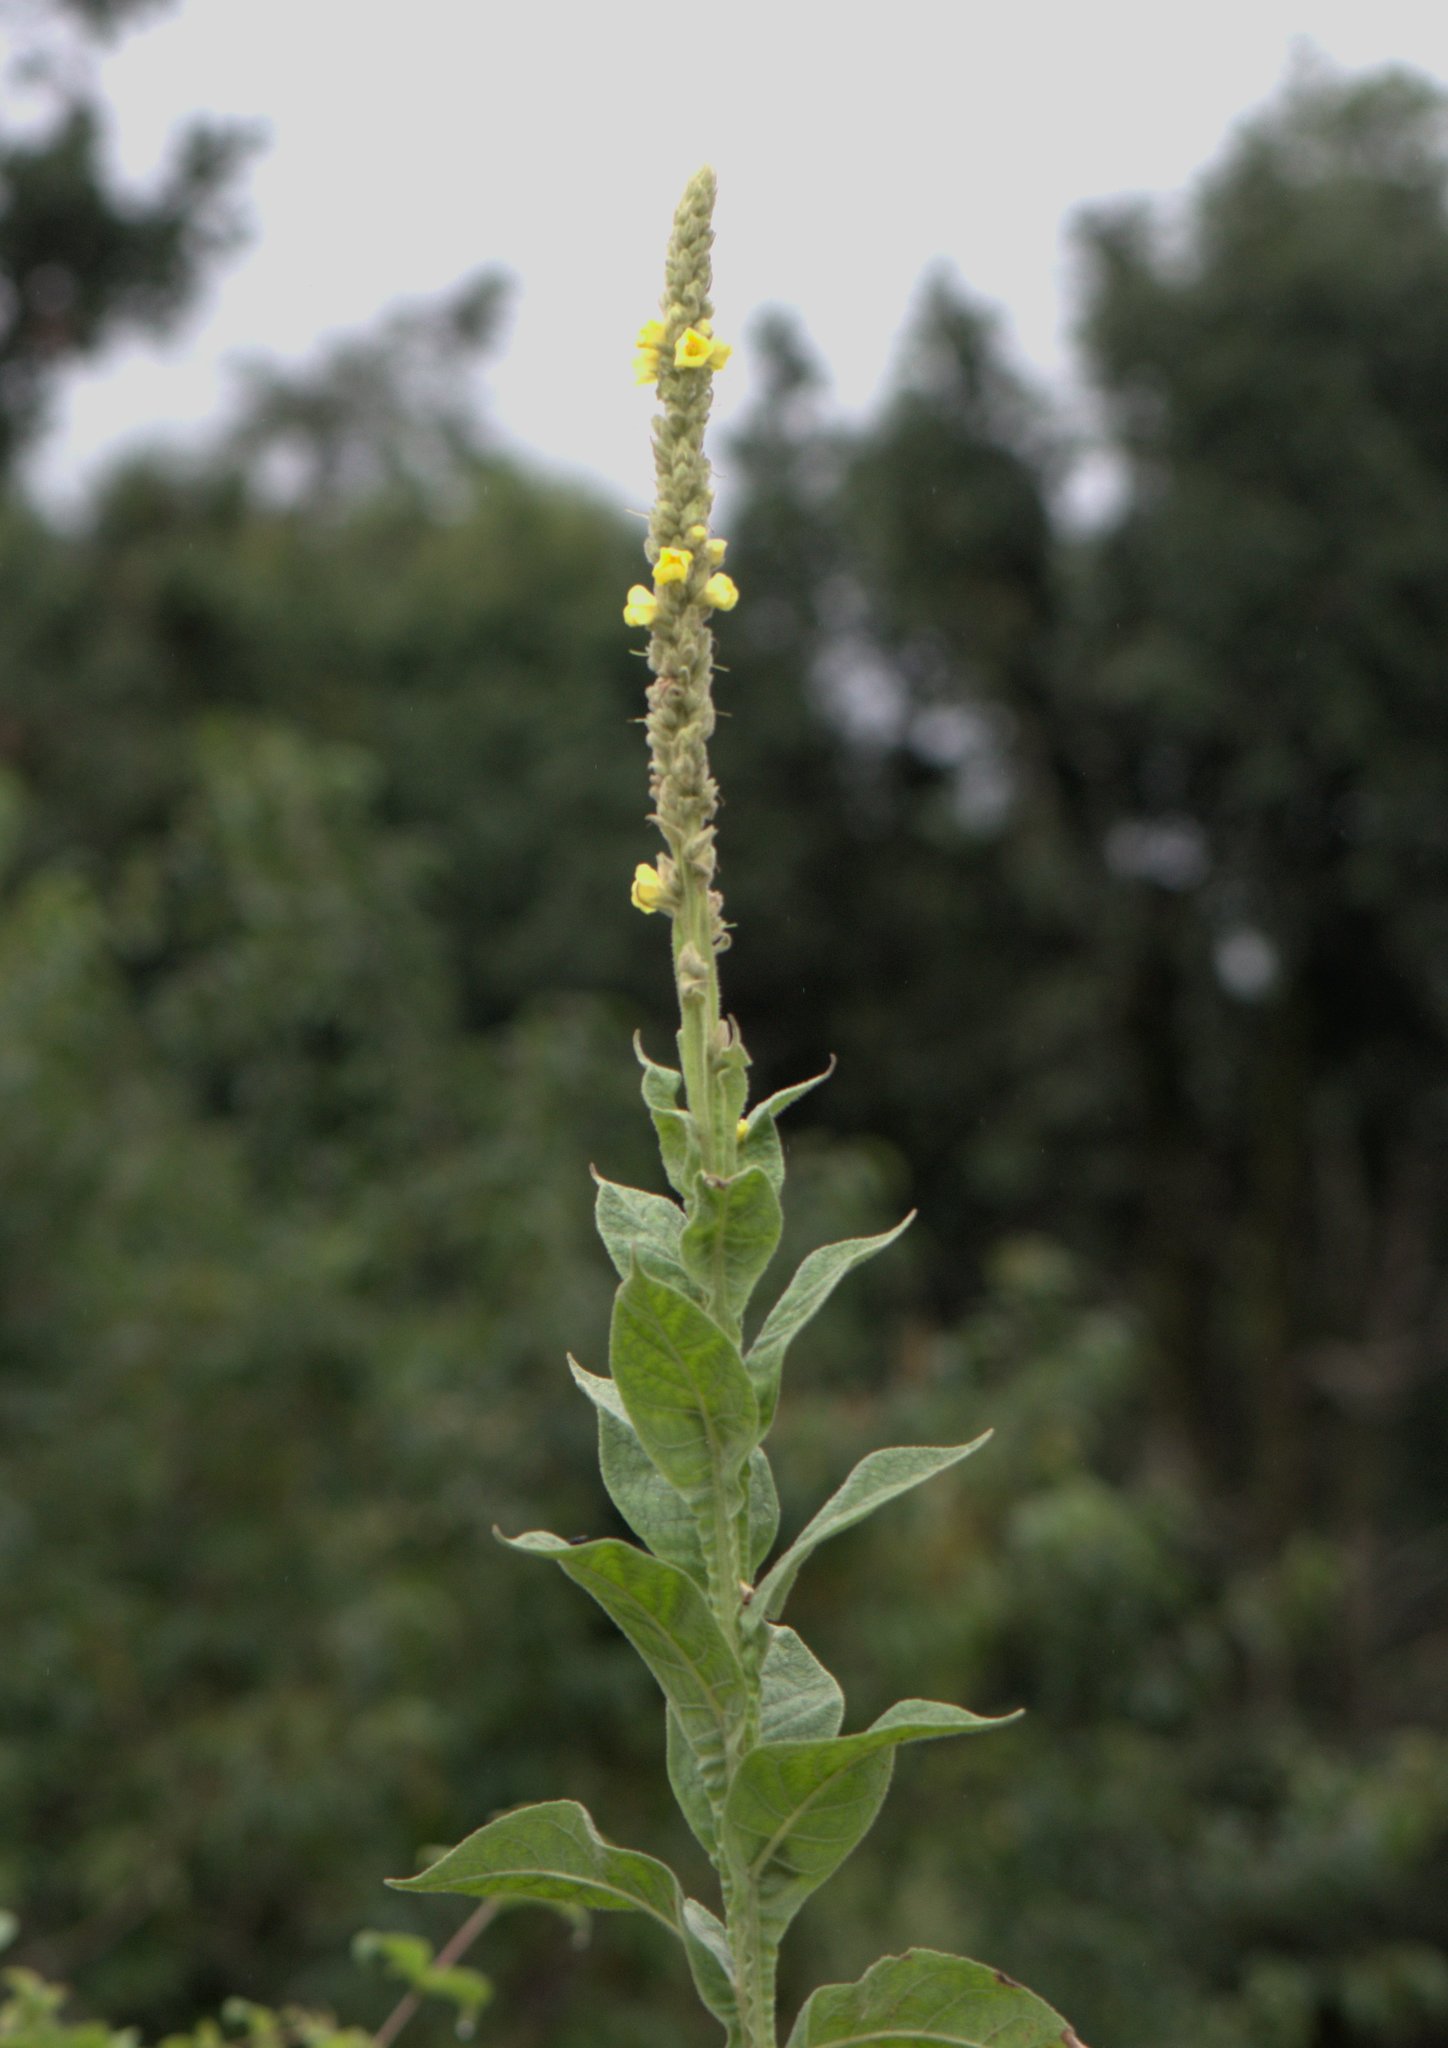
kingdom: Plantae
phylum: Tracheophyta
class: Magnoliopsida
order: Lamiales
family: Scrophulariaceae
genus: Verbascum
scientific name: Verbascum thapsus
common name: Common mullein
